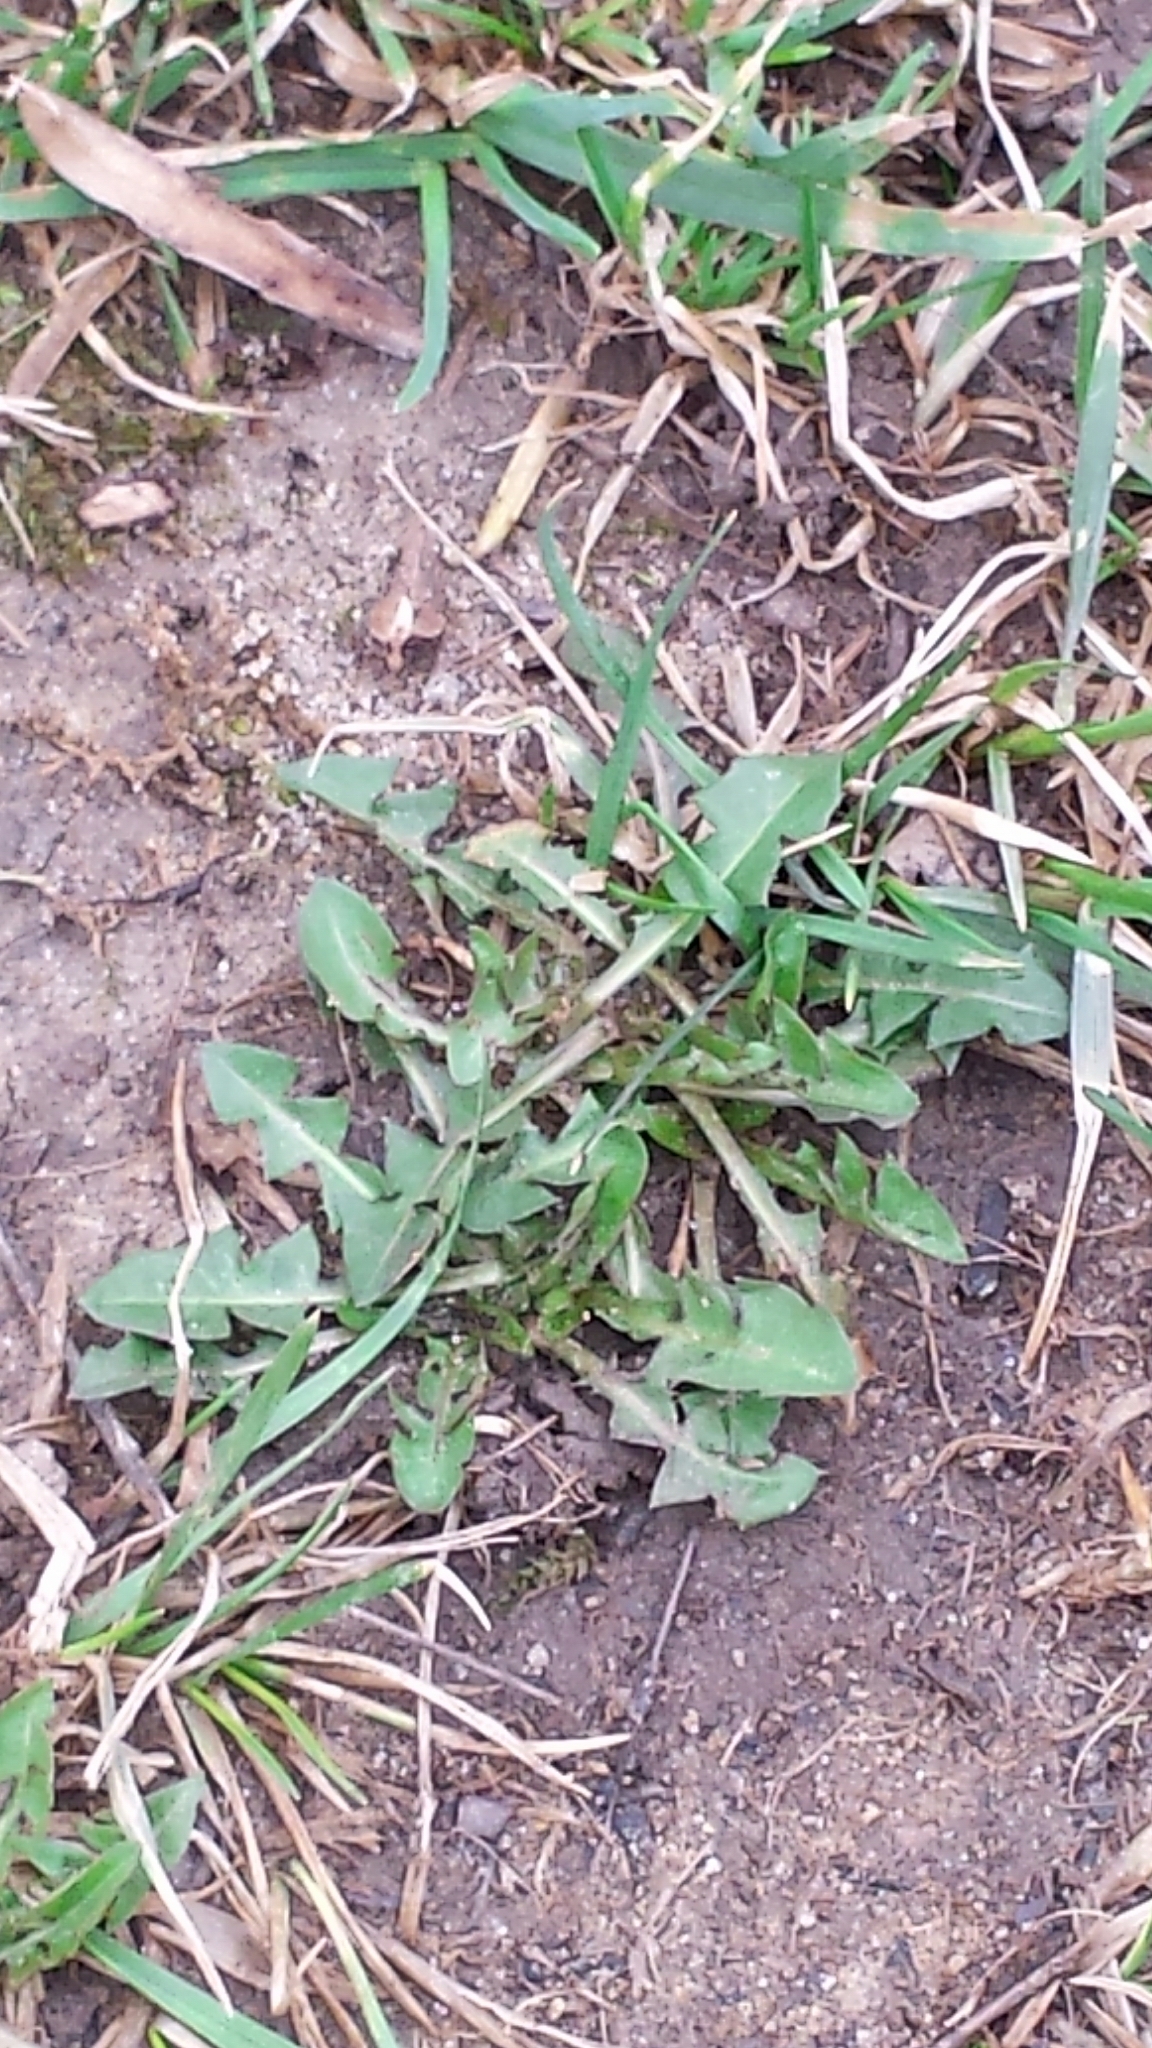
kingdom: Plantae
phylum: Tracheophyta
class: Magnoliopsida
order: Asterales
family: Asteraceae
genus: Taraxacum
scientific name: Taraxacum officinale
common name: Common dandelion
